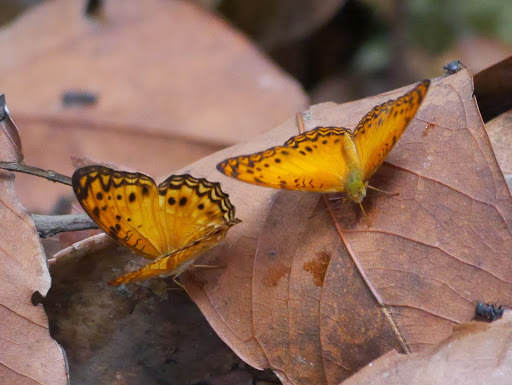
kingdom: Animalia
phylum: Arthropoda
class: Insecta
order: Lepidoptera
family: Nymphalidae
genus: Phalanta
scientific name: Phalanta columbina
